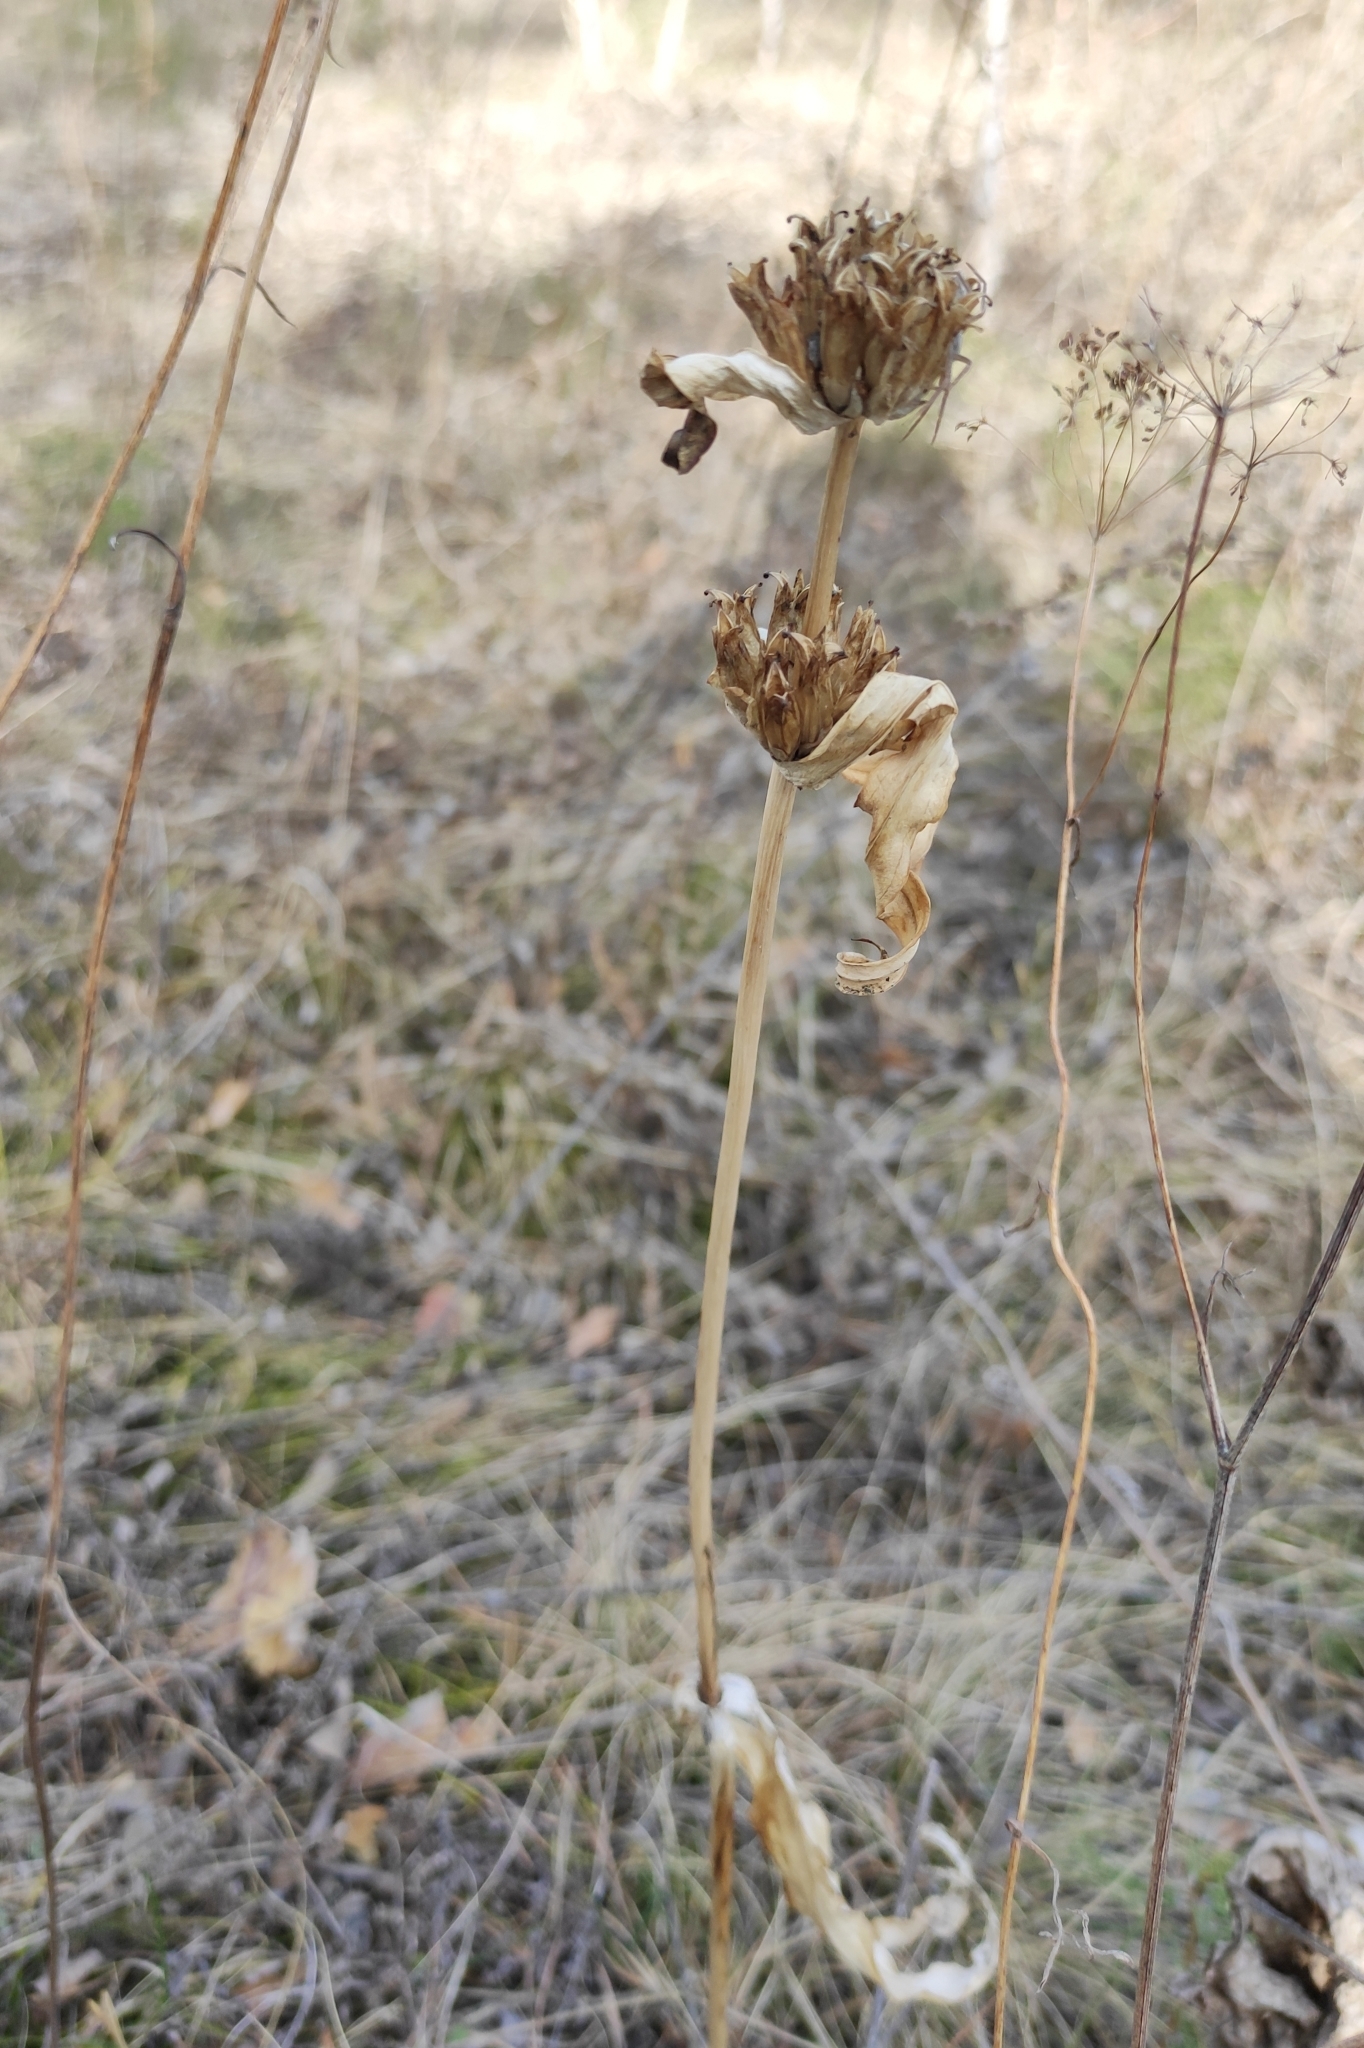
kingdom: Plantae
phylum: Tracheophyta
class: Magnoliopsida
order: Gentianales
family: Gentianaceae
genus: Gentiana
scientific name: Gentiana macrophylla
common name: Large-leaf gentian
